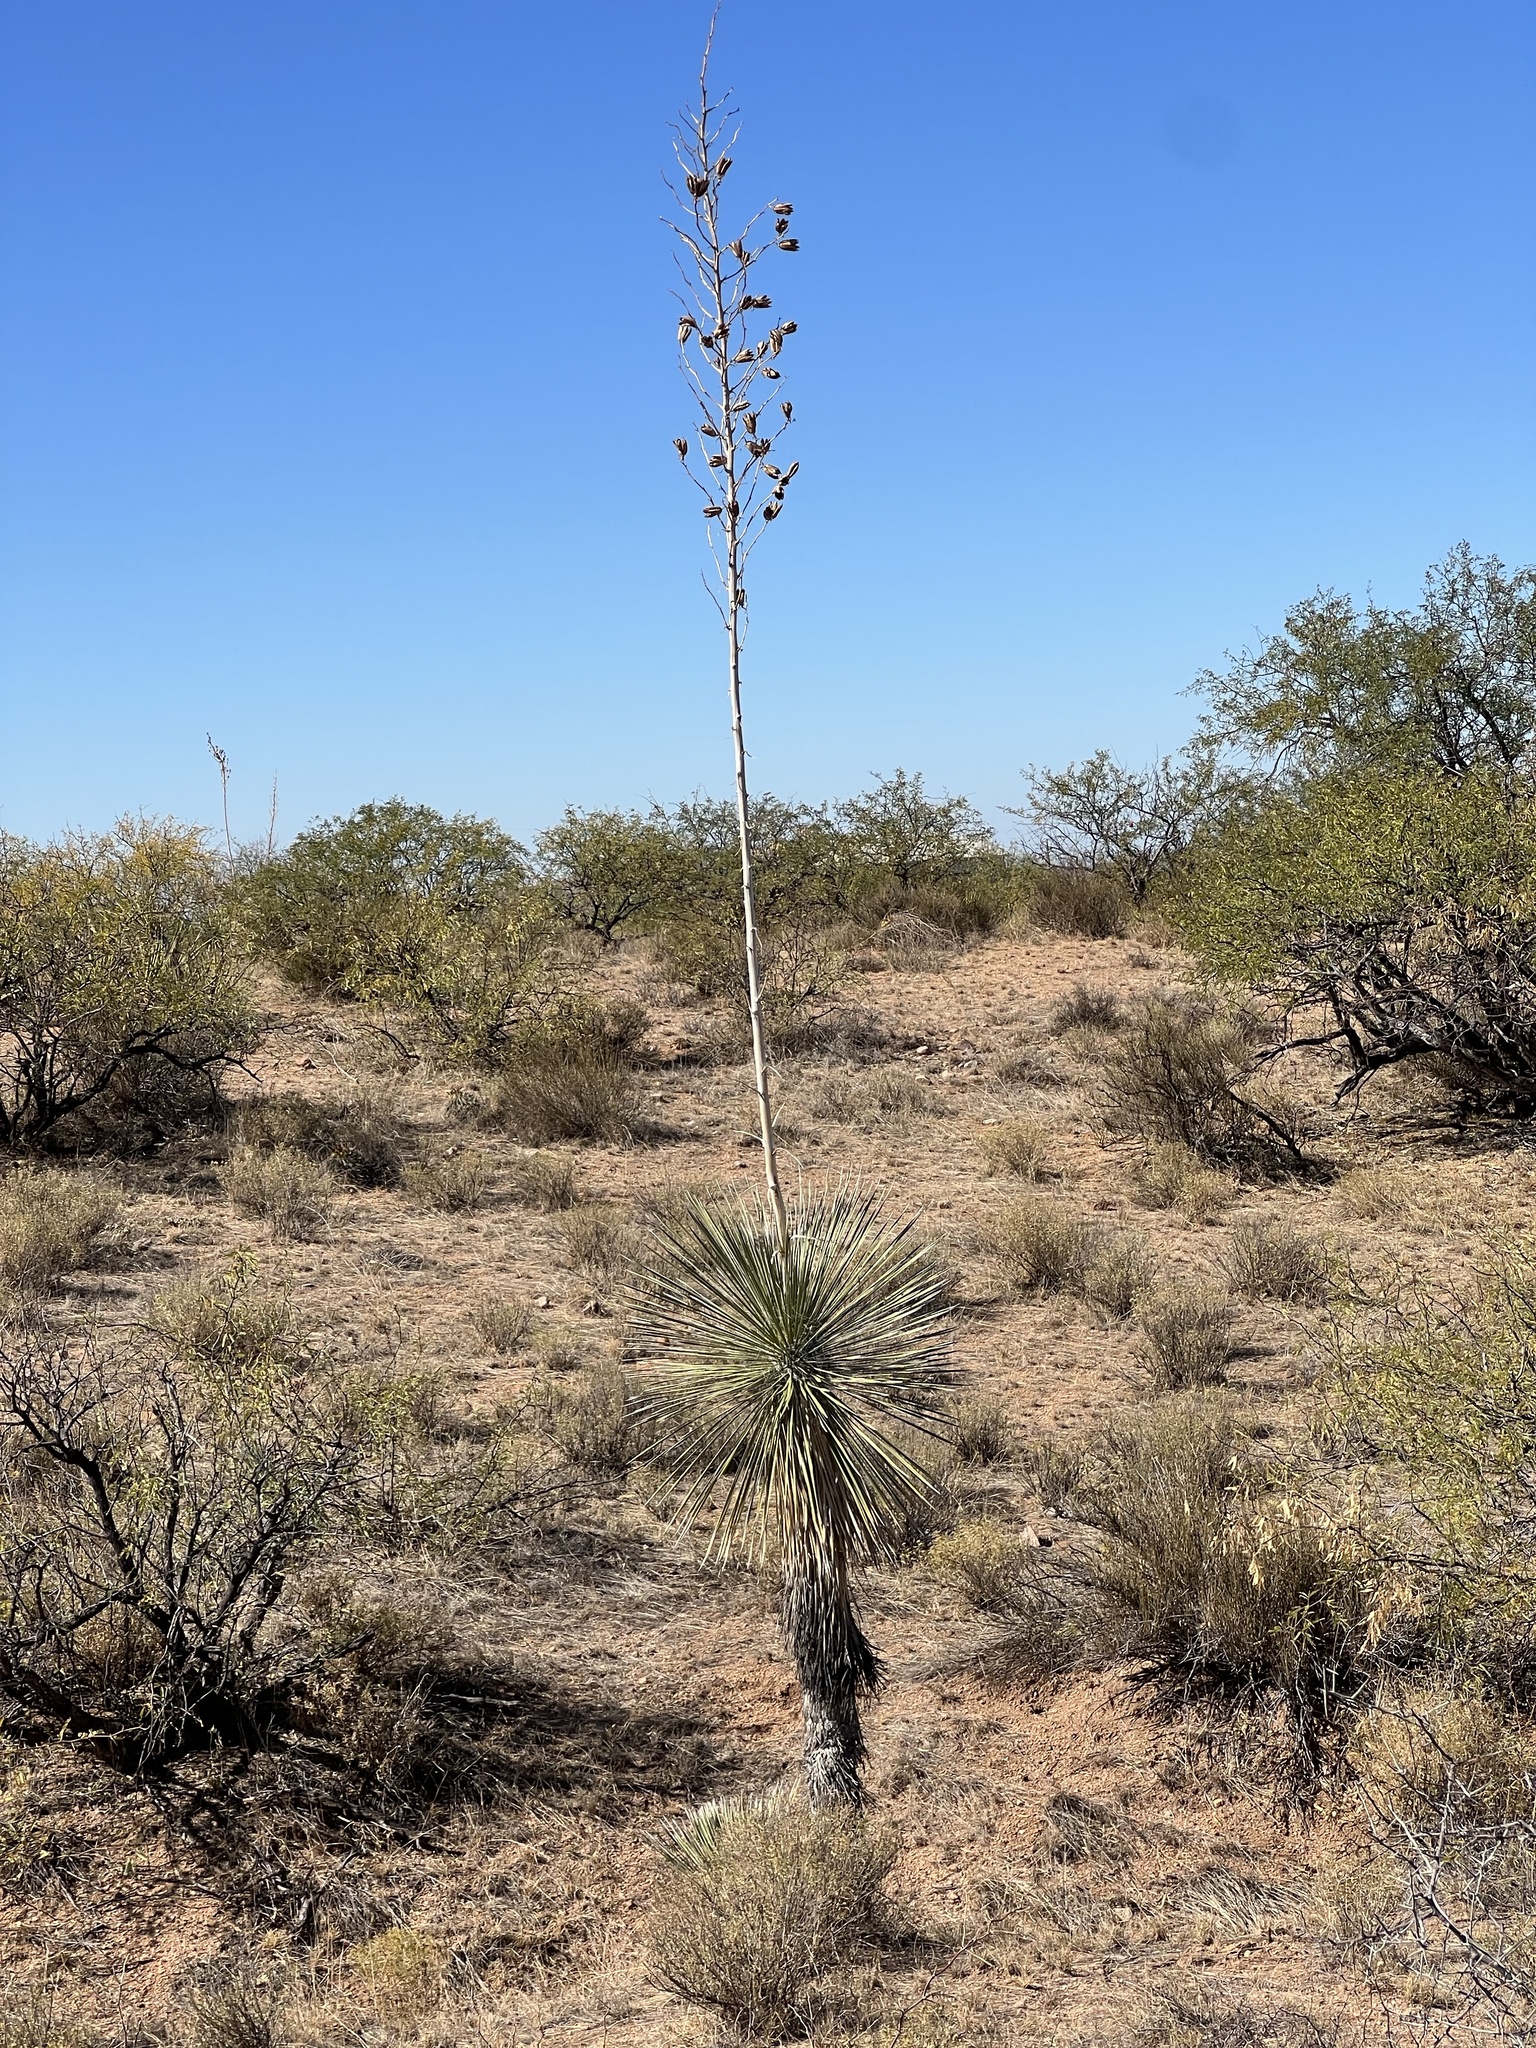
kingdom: Plantae
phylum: Tracheophyta
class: Liliopsida
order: Asparagales
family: Asparagaceae
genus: Yucca
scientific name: Yucca elata
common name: Palmella
